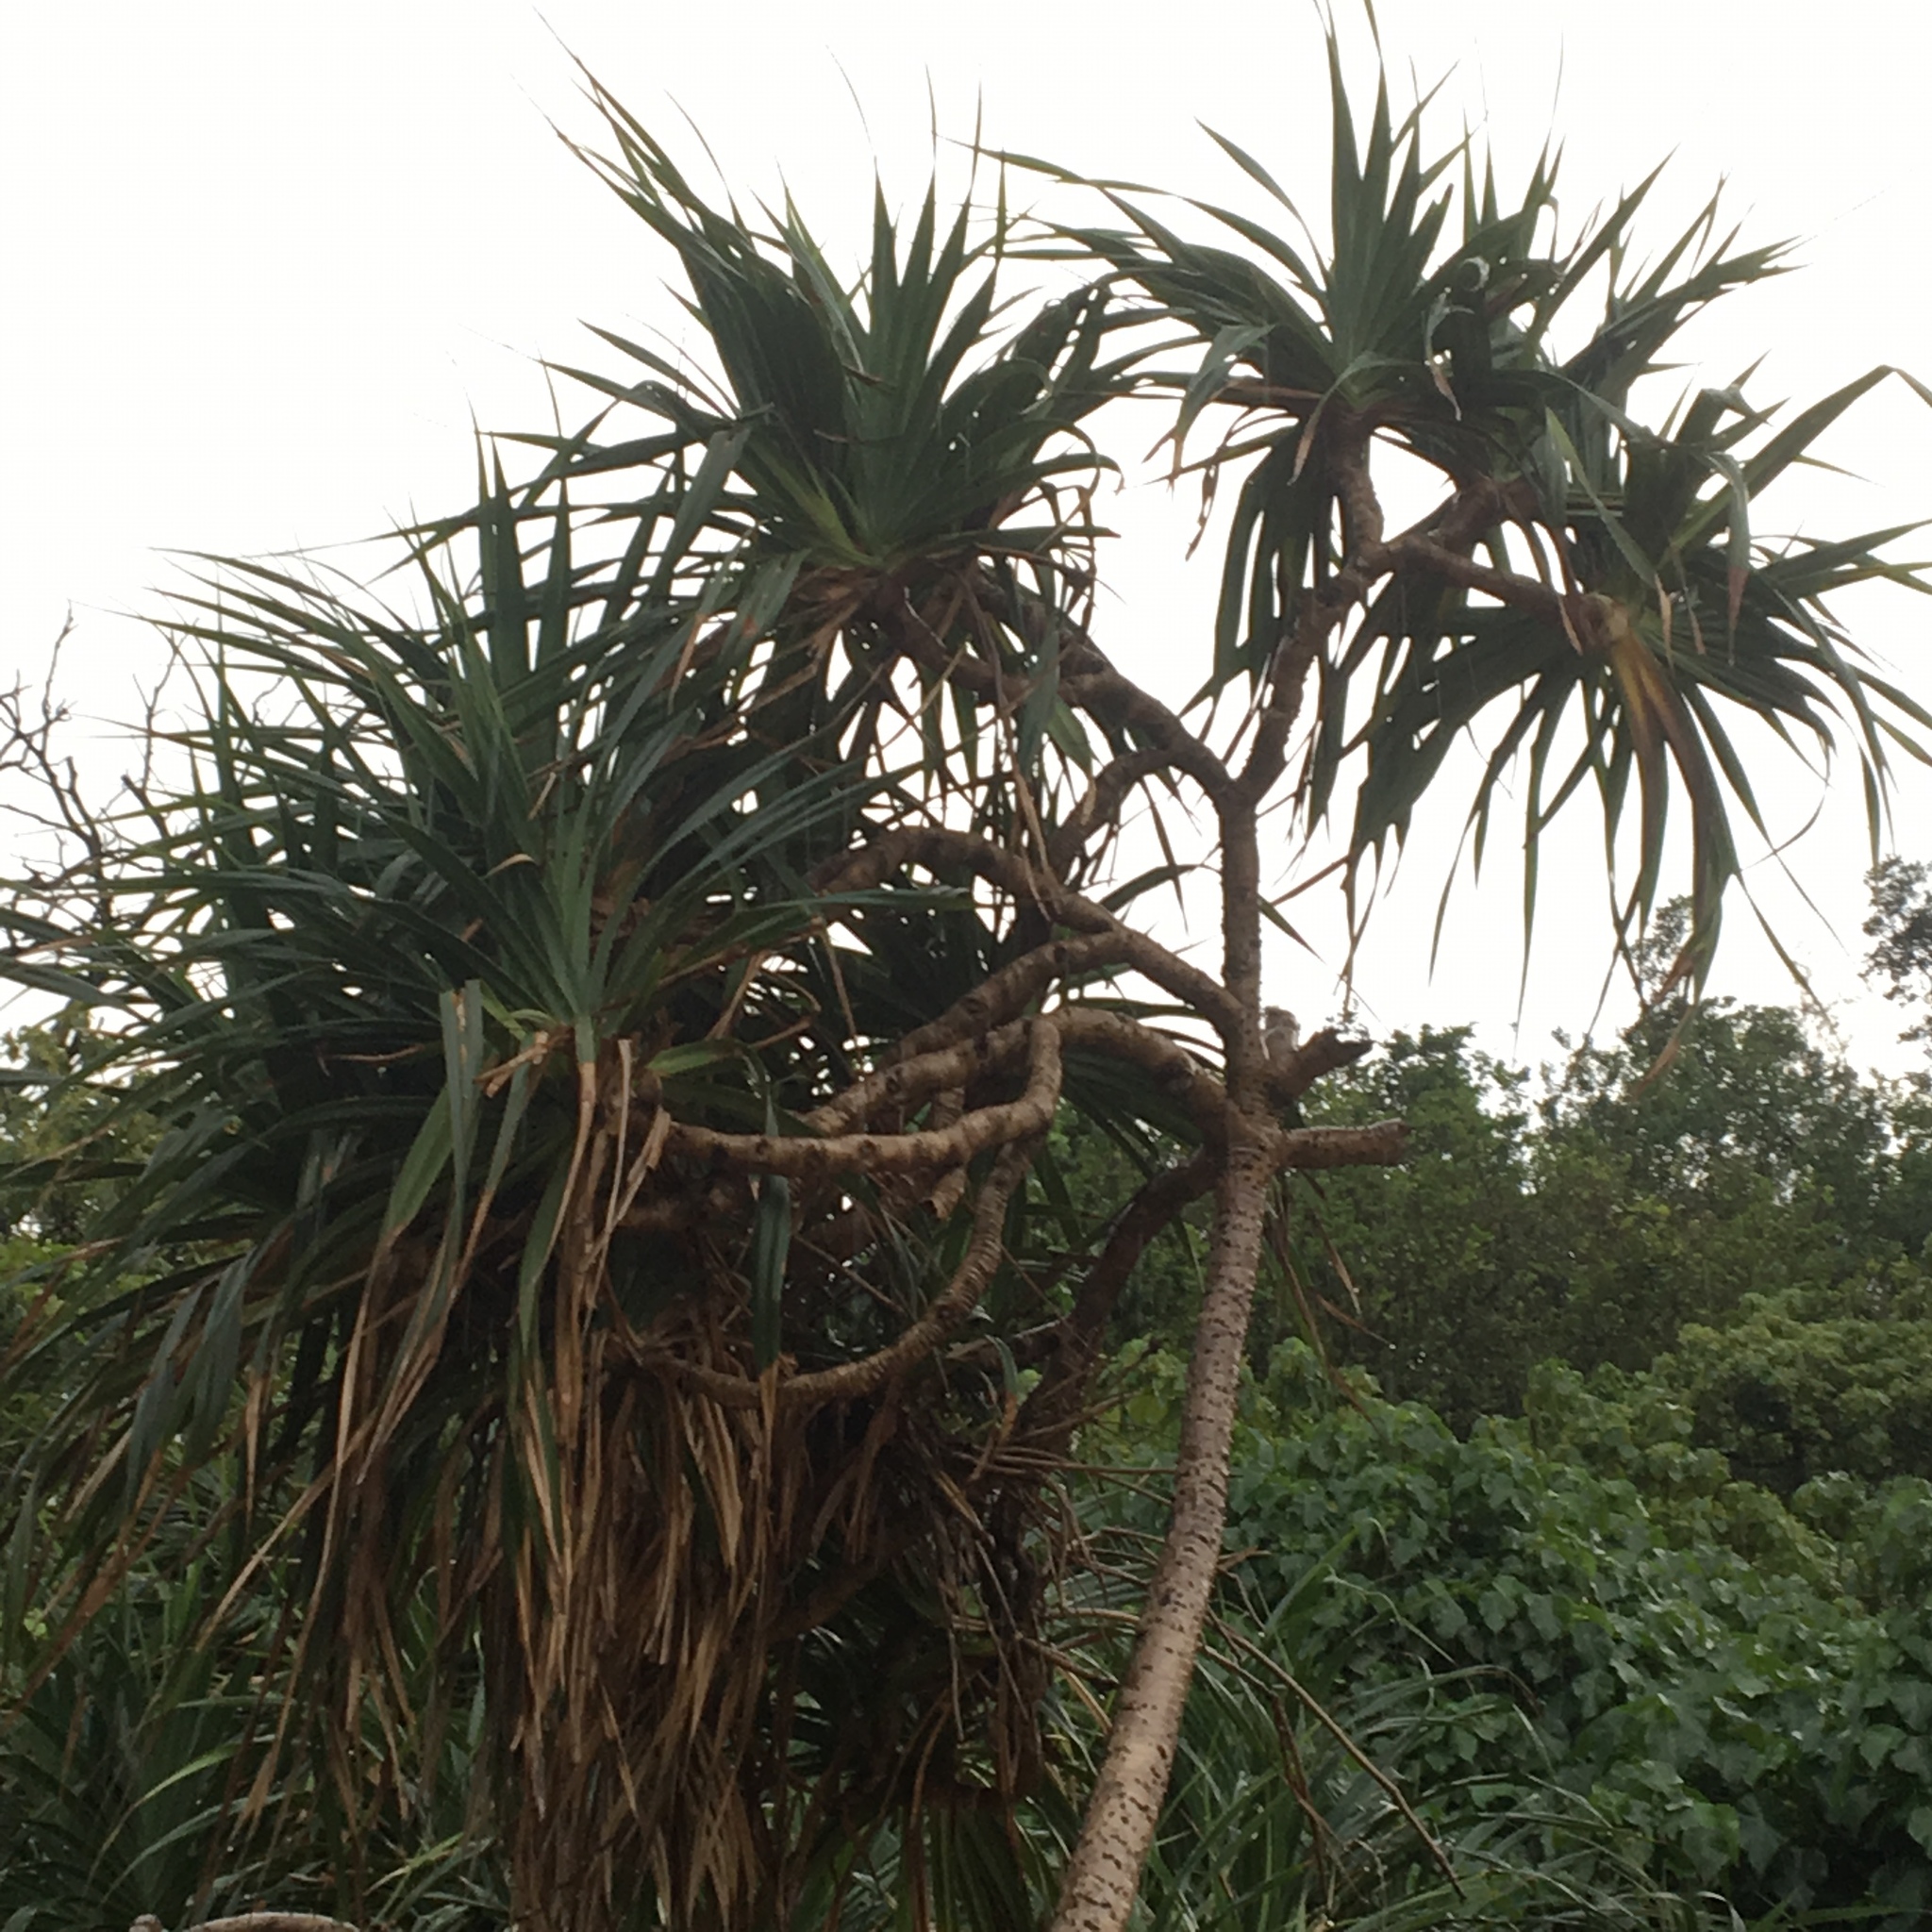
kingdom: Plantae
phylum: Tracheophyta
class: Liliopsida
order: Pandanales
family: Pandanaceae
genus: Pandanus
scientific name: Pandanus tectorius
